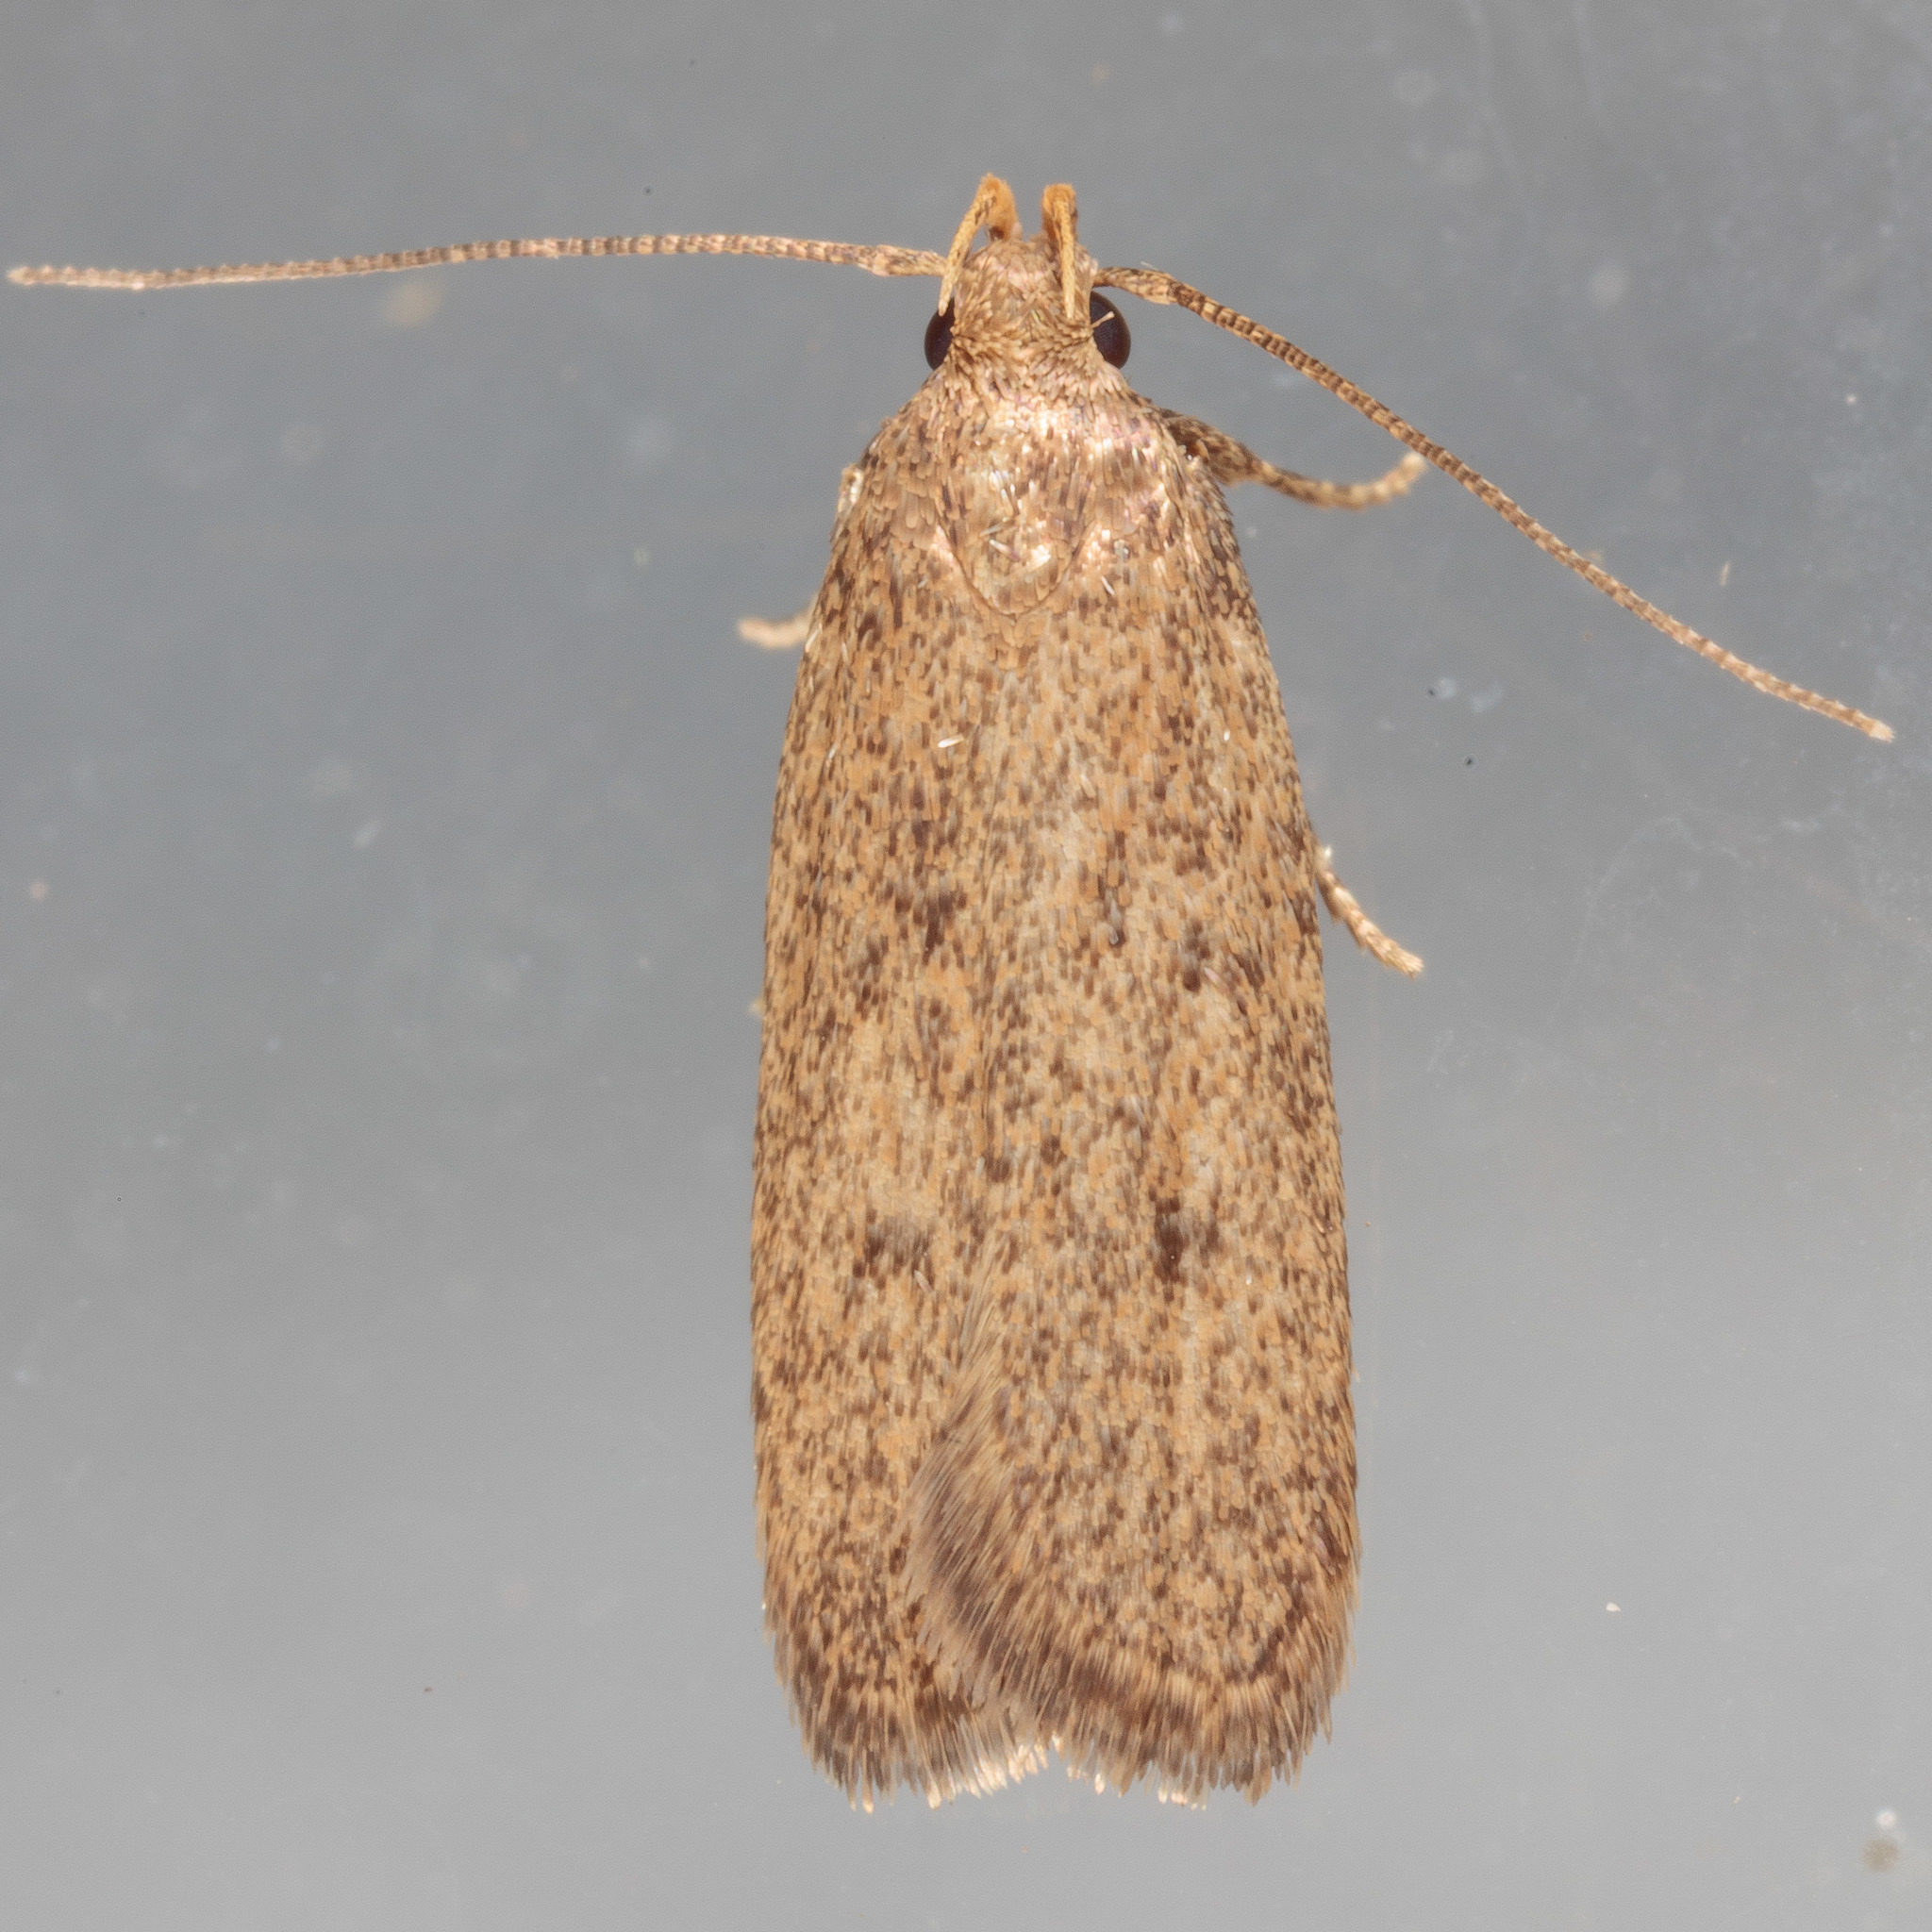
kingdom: Animalia
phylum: Arthropoda
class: Insecta
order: Lepidoptera
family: Autostichidae
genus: Glyphidocera
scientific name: Glyphidocera juniperella
